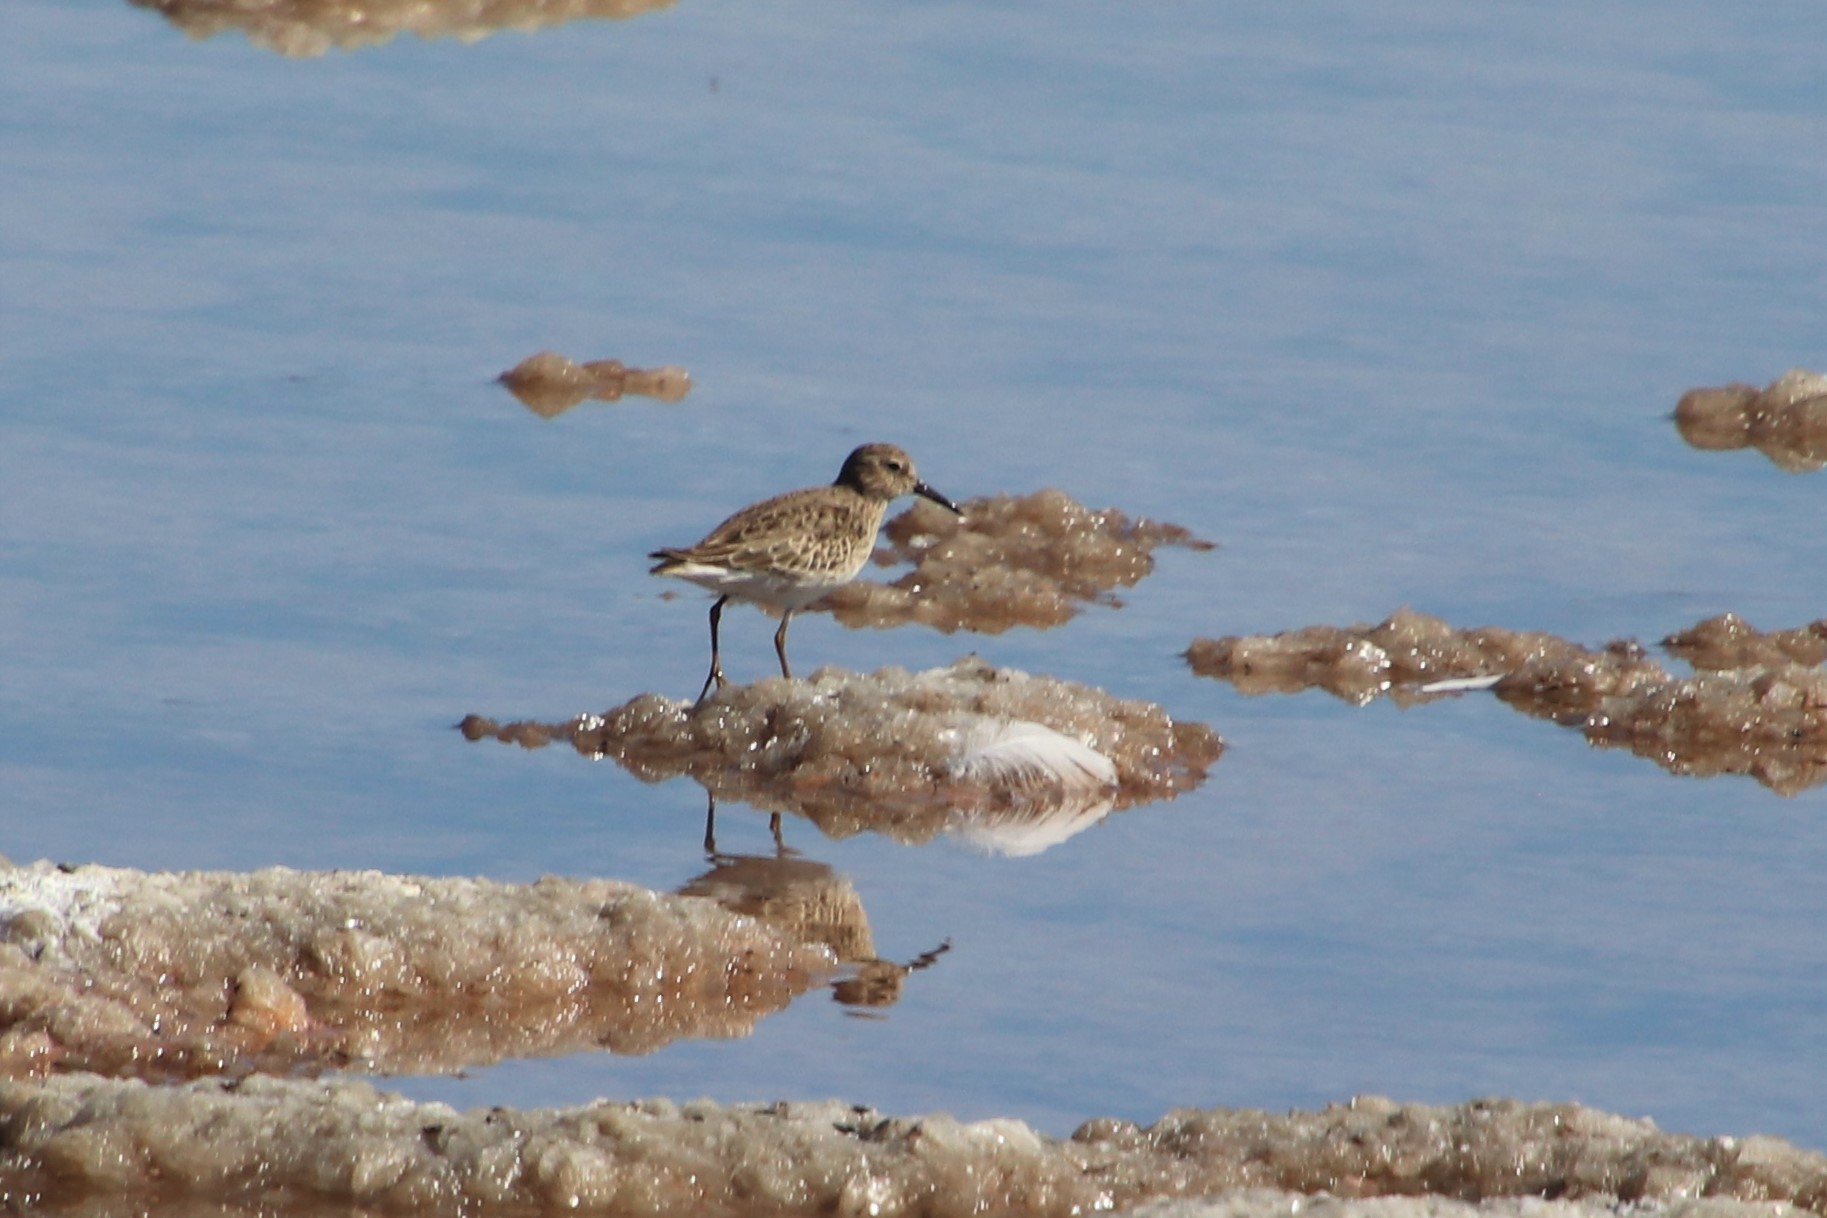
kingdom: Animalia
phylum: Chordata
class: Aves
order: Charadriiformes
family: Scolopacidae
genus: Calidris
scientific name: Calidris minutilla
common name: Least sandpiper
